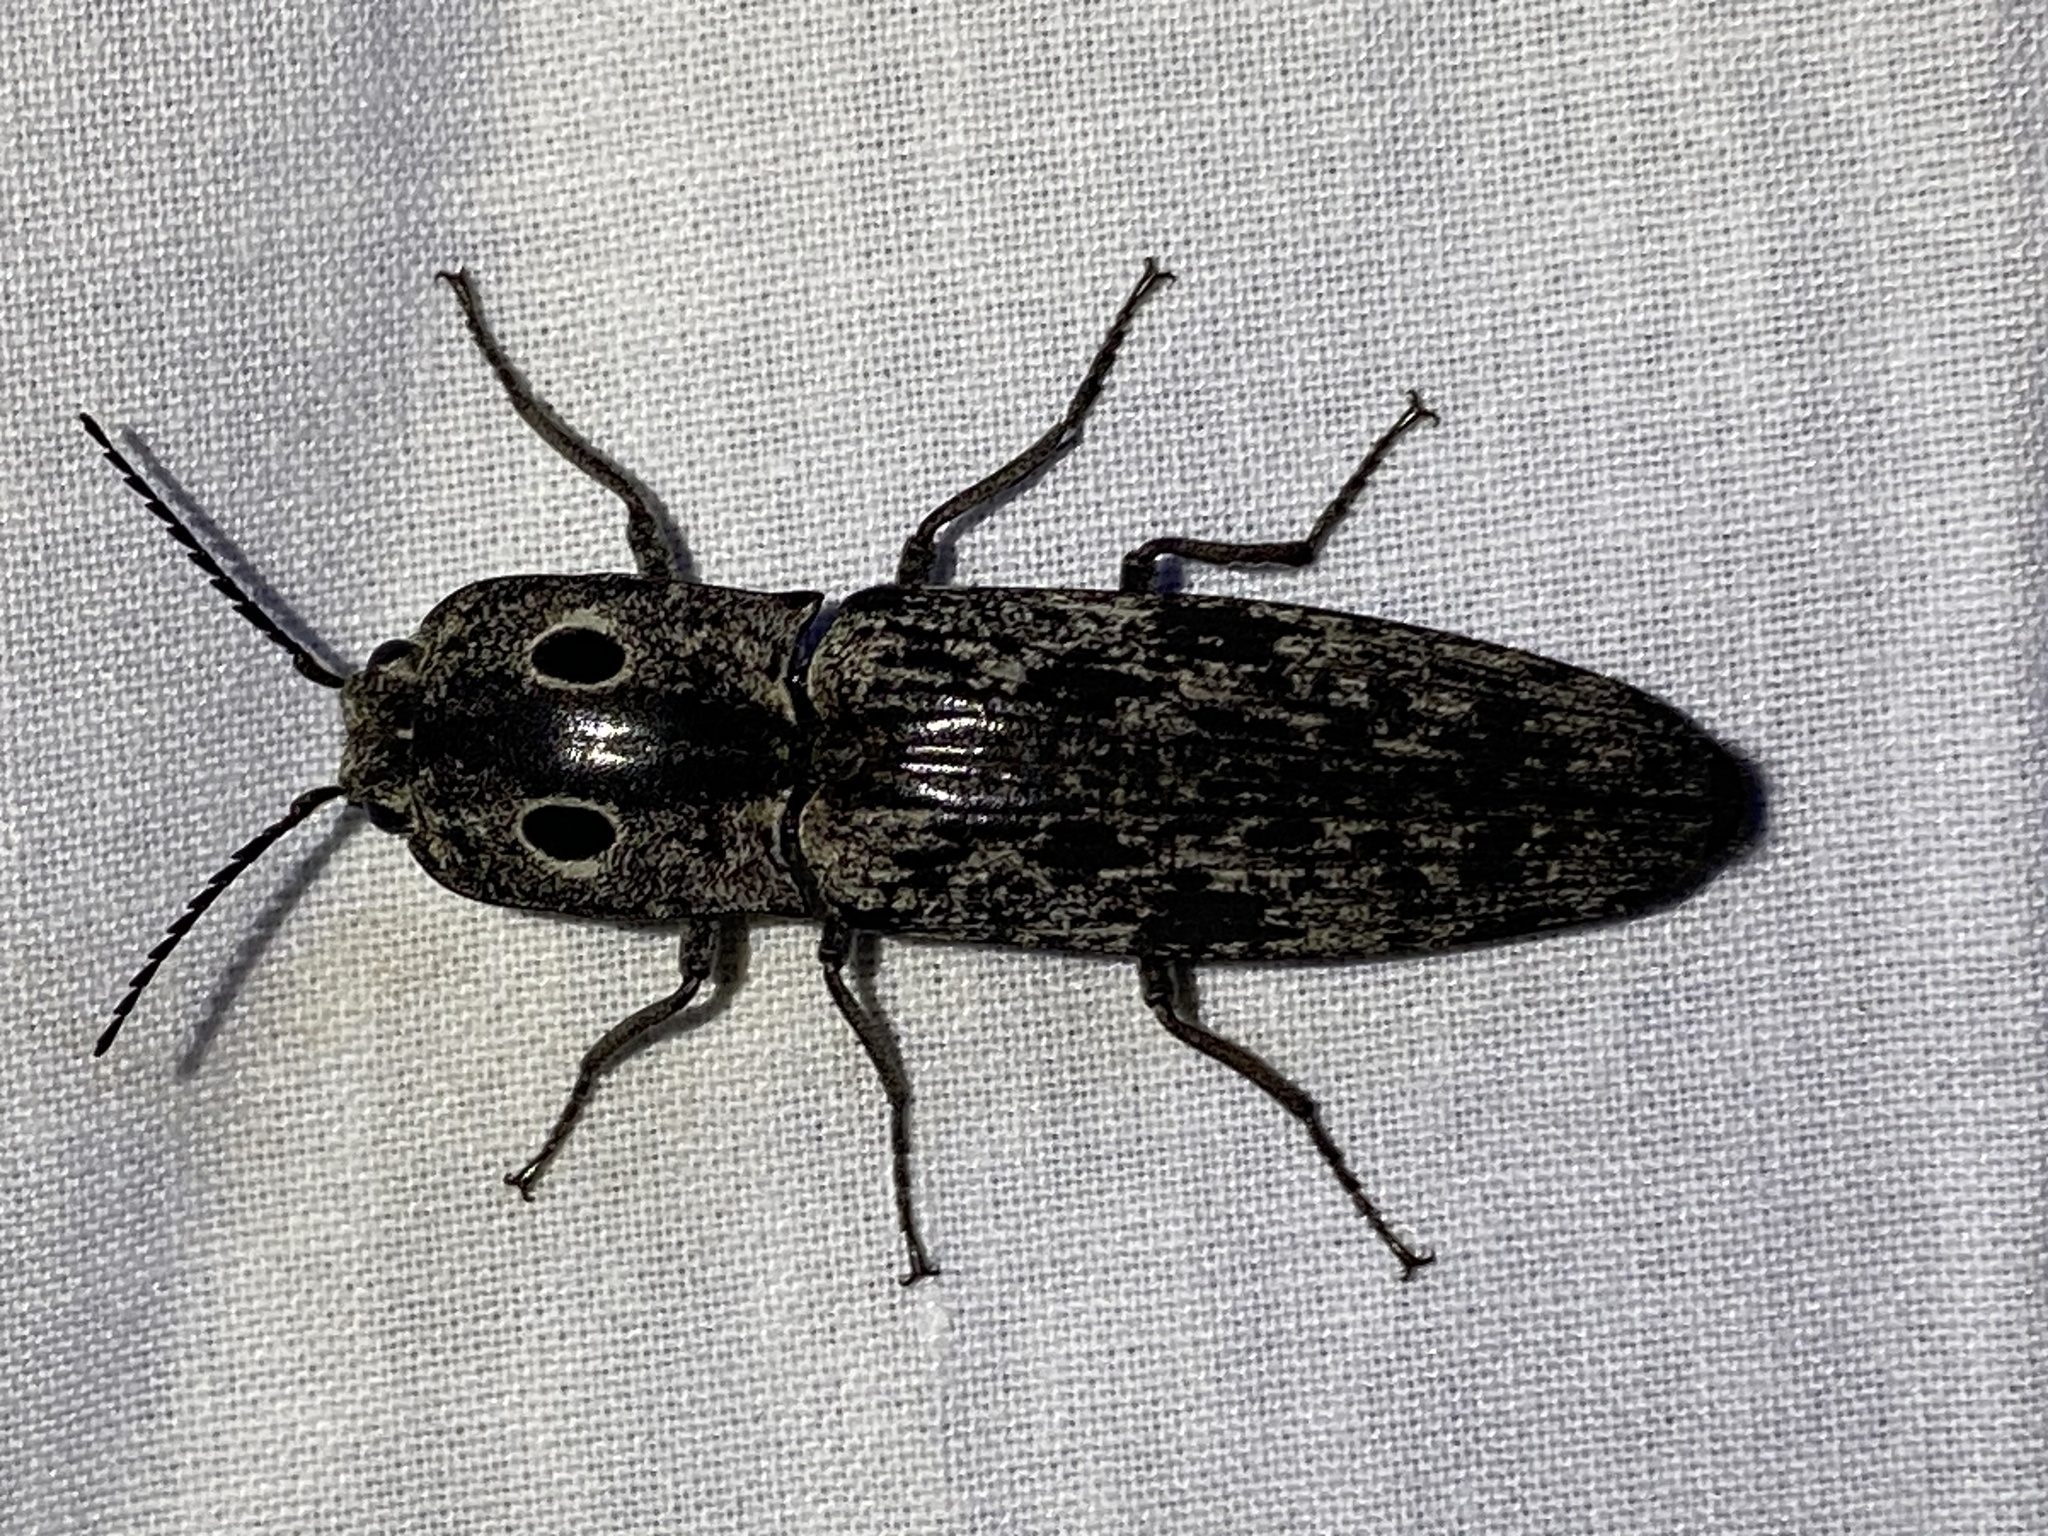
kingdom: Animalia
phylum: Arthropoda
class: Insecta
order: Coleoptera
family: Elateridae
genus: Alaus
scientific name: Alaus myops
